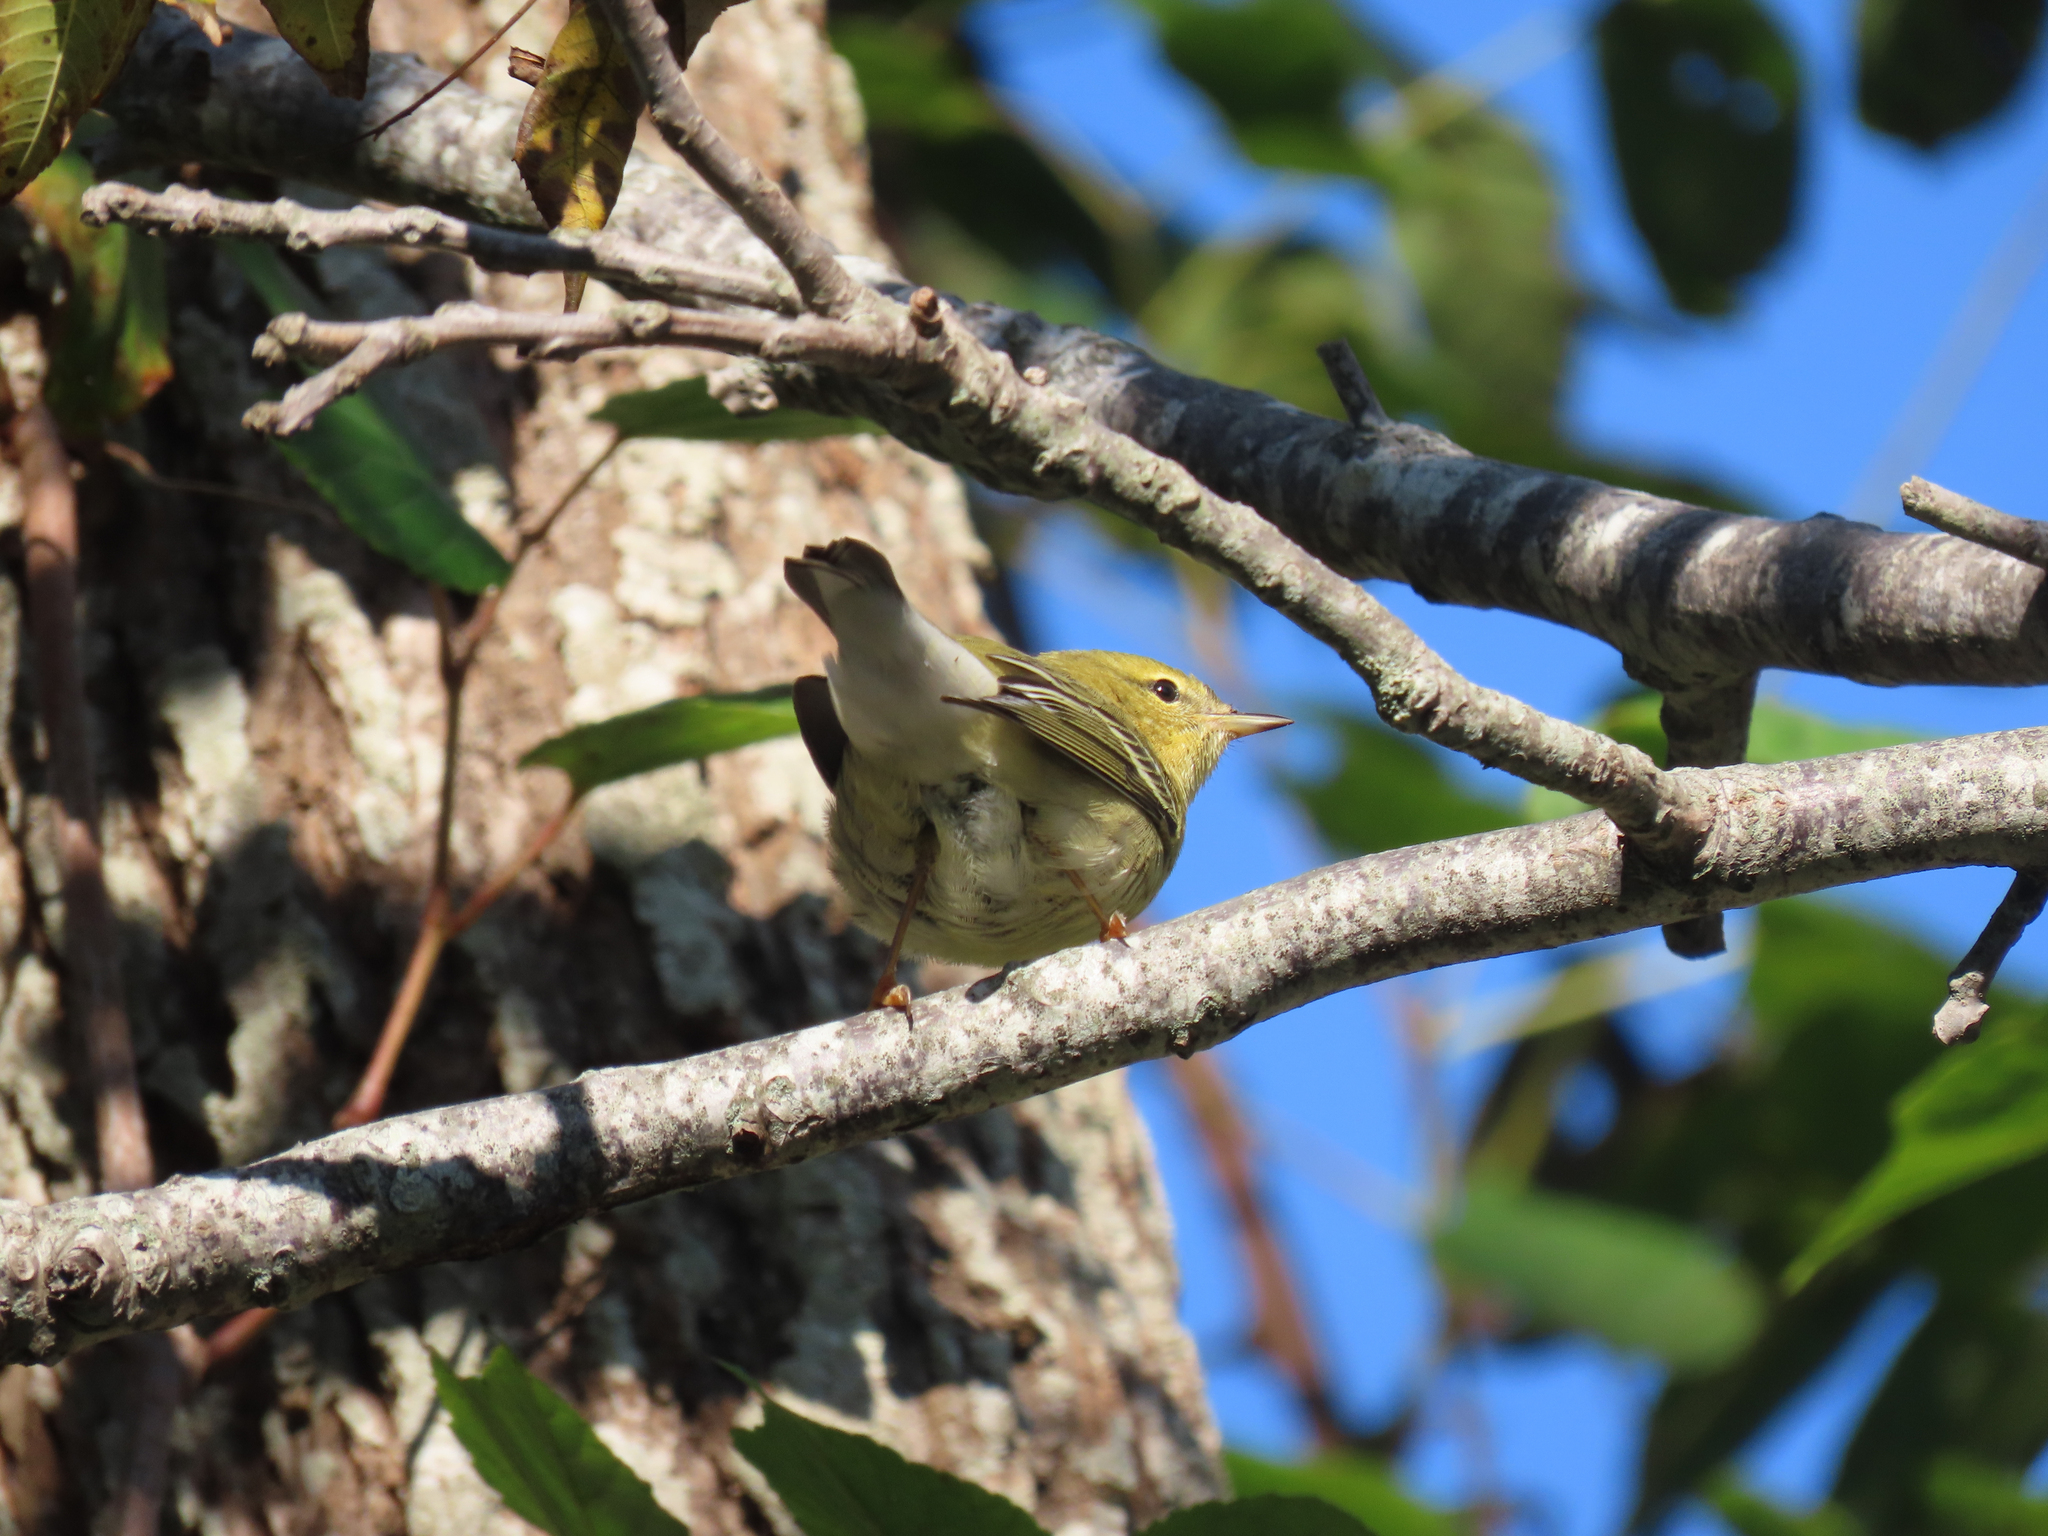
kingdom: Animalia
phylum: Chordata
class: Aves
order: Passeriformes
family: Parulidae
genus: Setophaga
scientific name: Setophaga striata
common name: Blackpoll warbler
